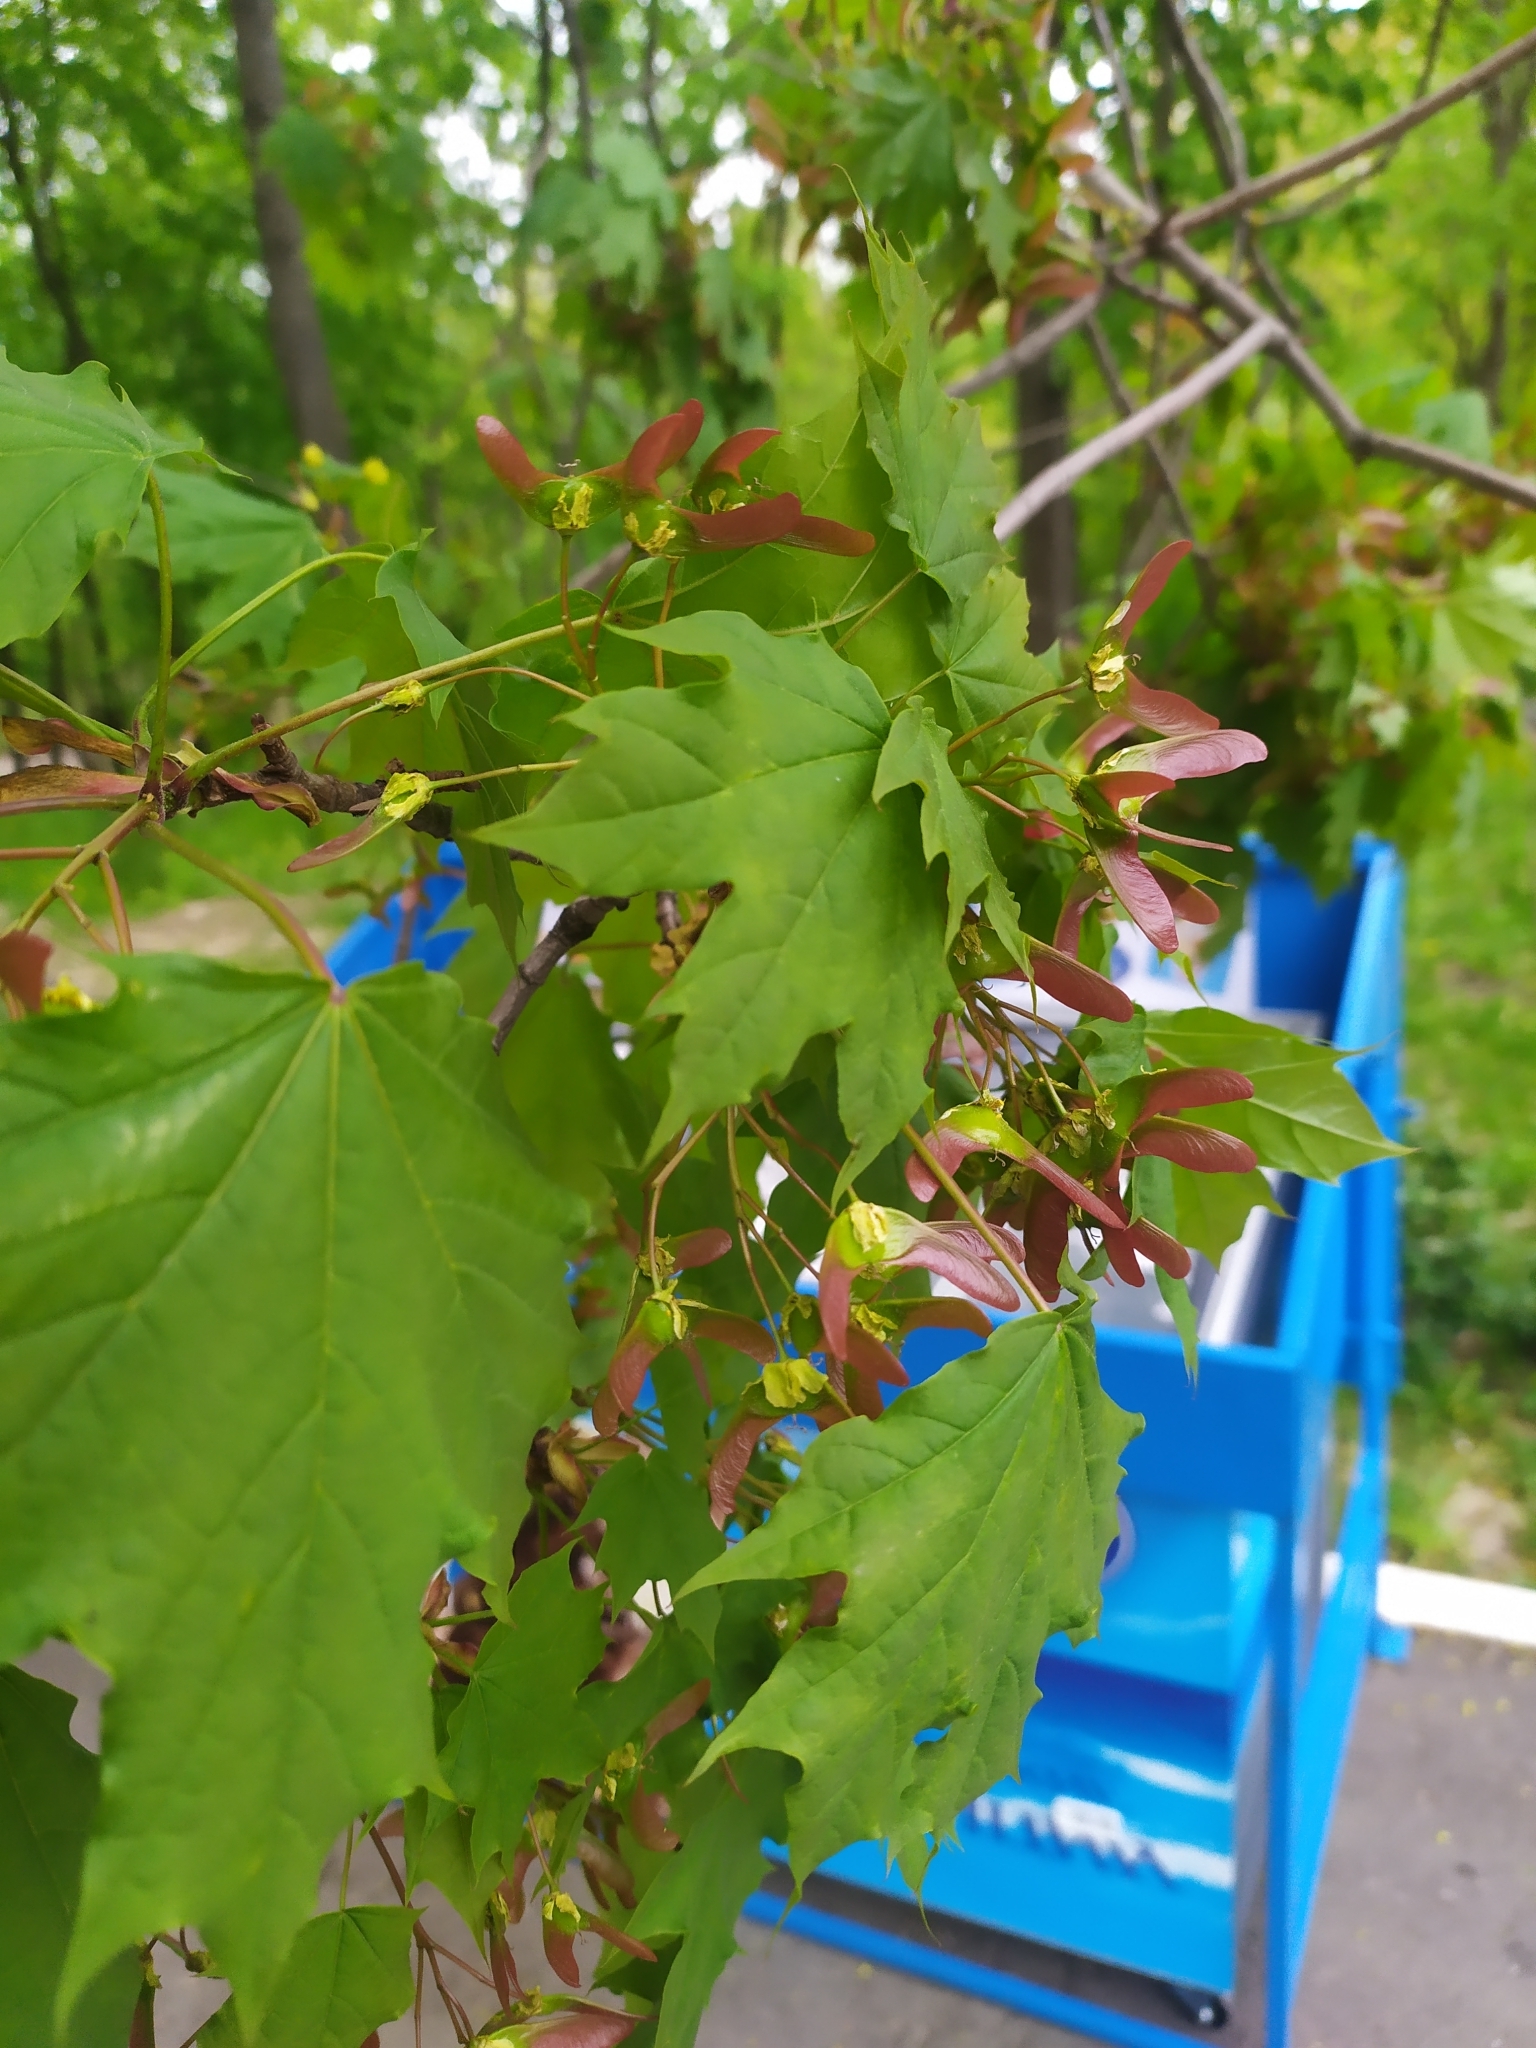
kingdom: Plantae
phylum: Tracheophyta
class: Magnoliopsida
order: Sapindales
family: Sapindaceae
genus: Acer
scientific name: Acer platanoides
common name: Norway maple
